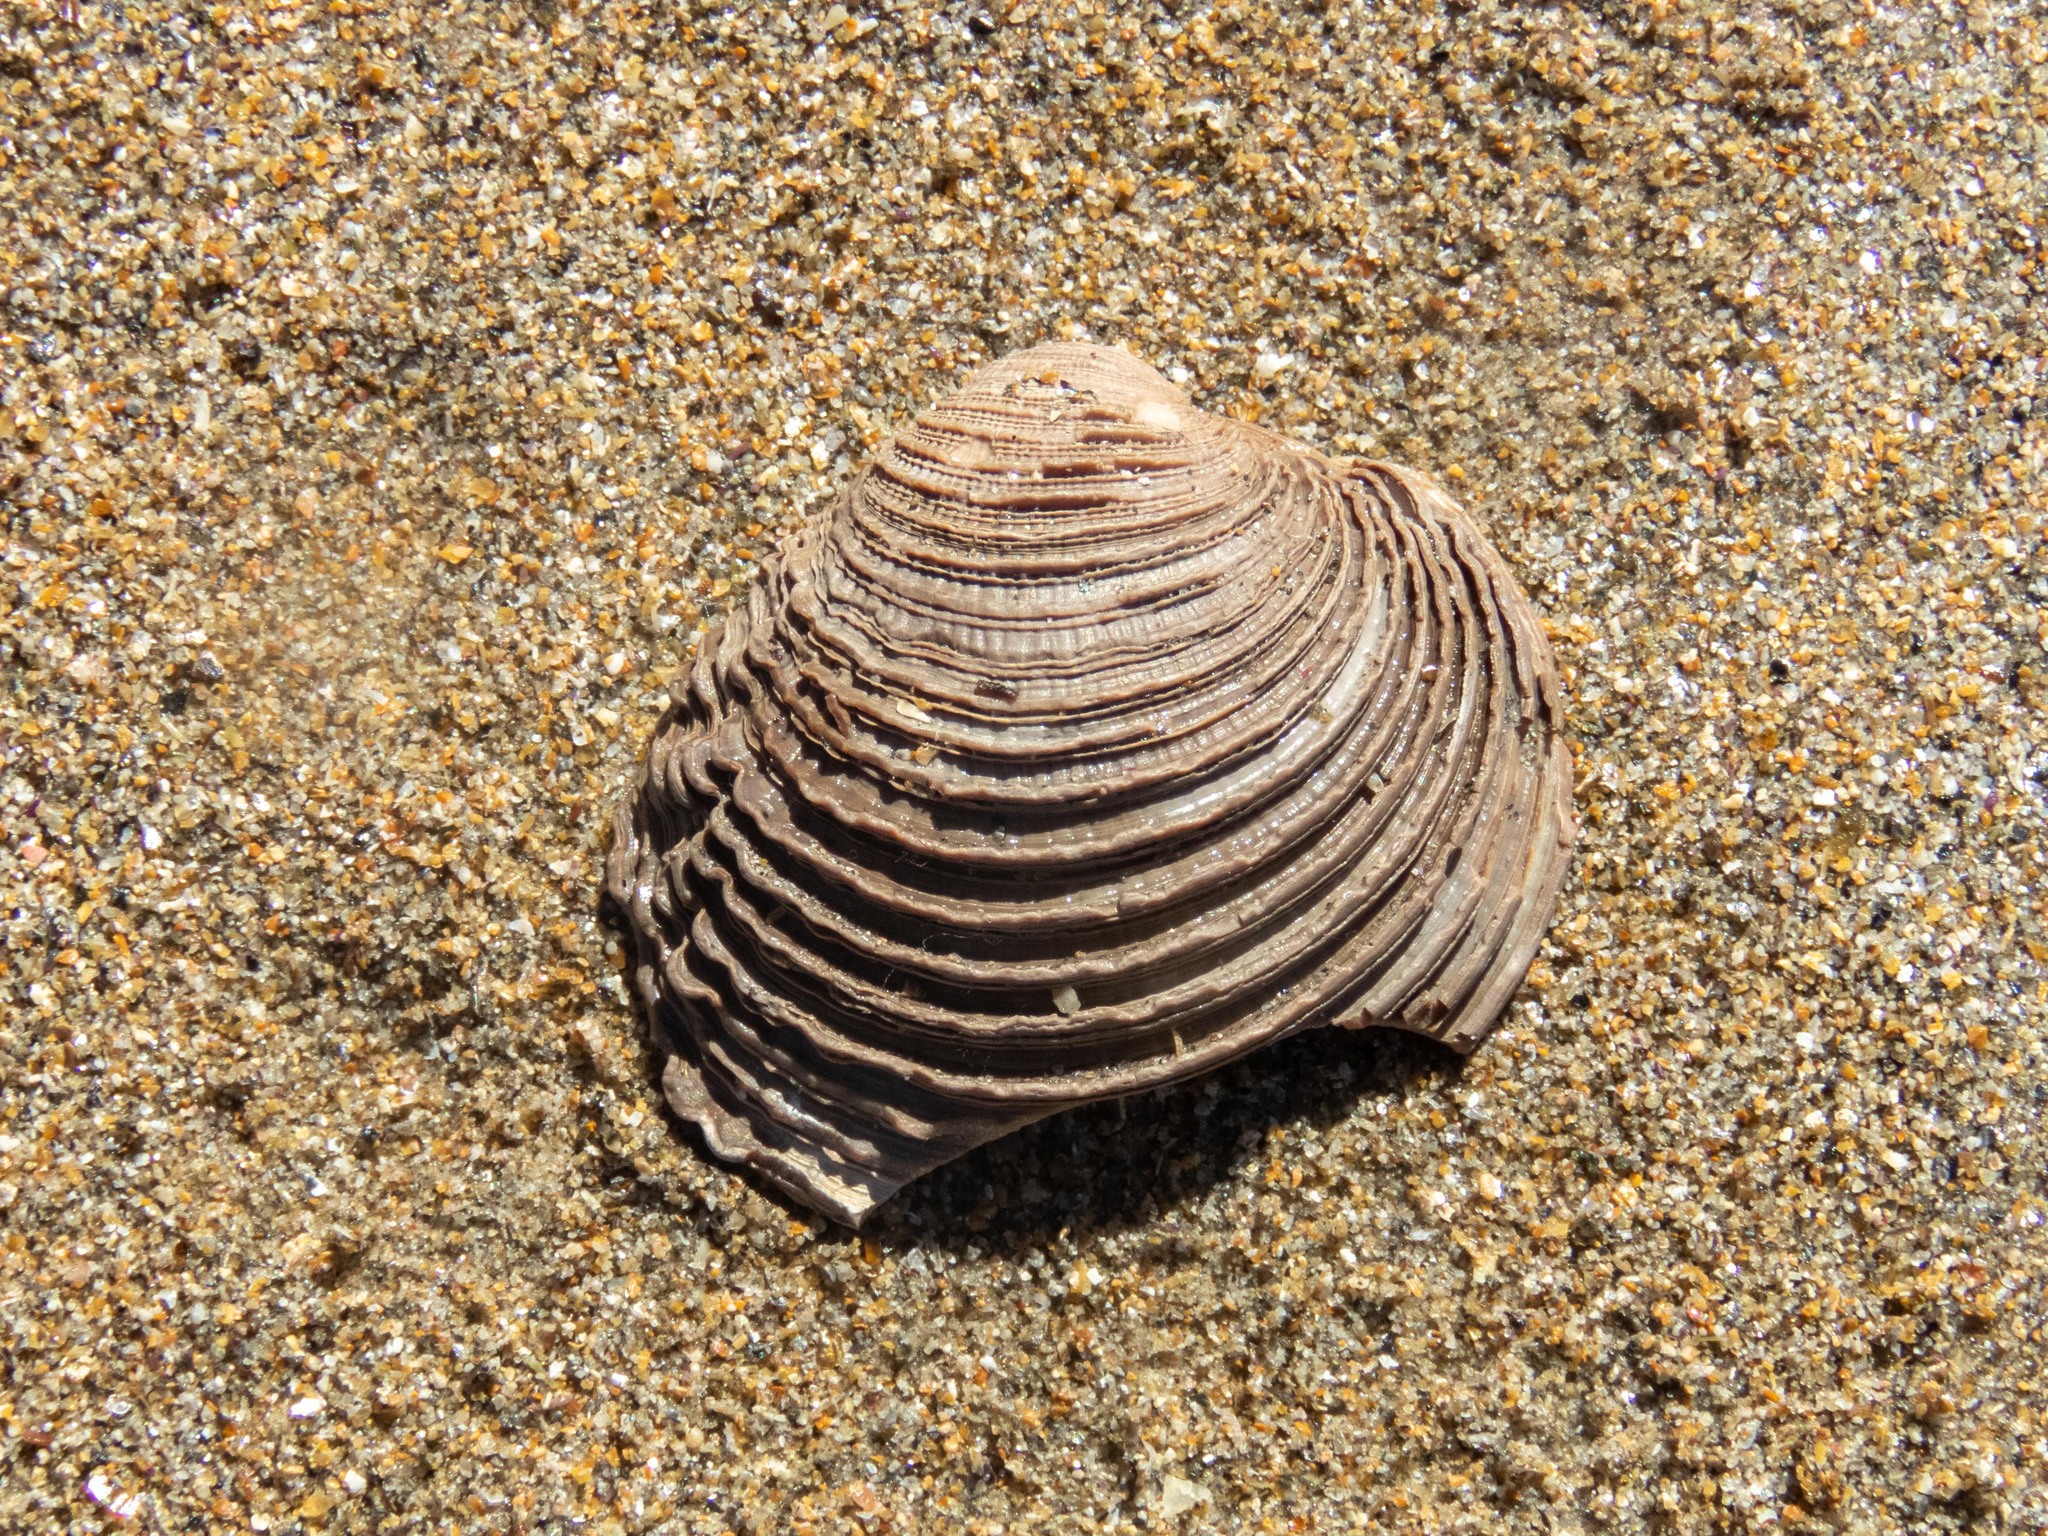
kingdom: Animalia
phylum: Mollusca
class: Bivalvia
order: Venerida
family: Veneridae
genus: Venus
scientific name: Venus verrucosa
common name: Warty venus
